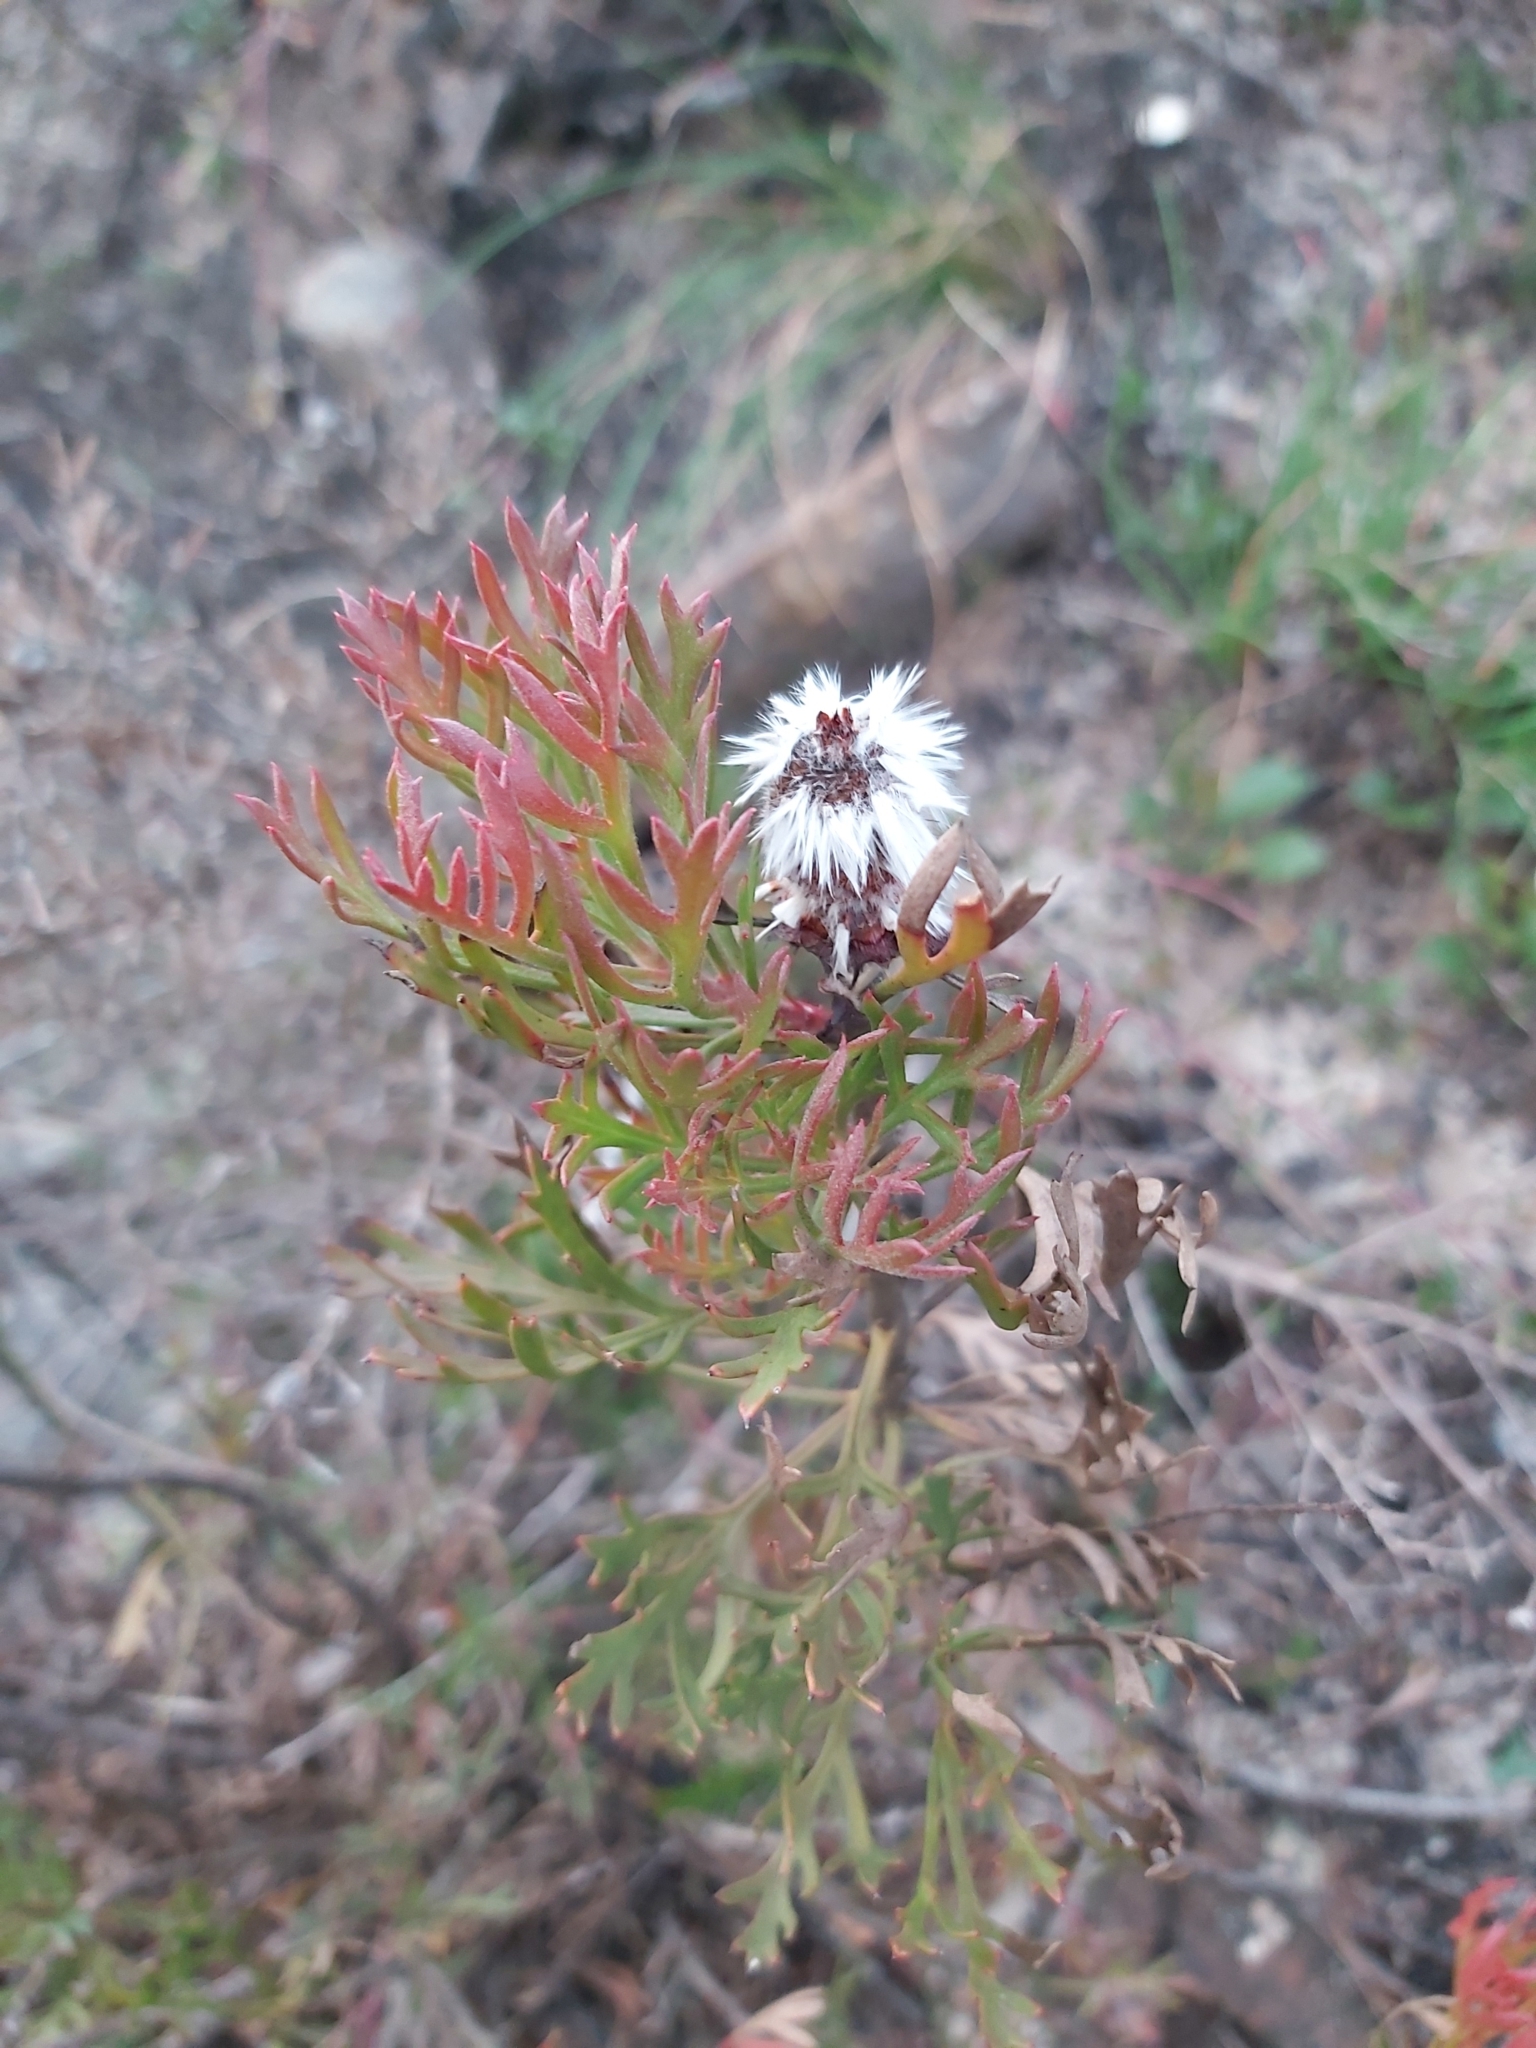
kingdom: Plantae
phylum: Tracheophyta
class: Magnoliopsida
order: Proteales
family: Proteaceae
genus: Isopogon
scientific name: Isopogon anemonifolius
